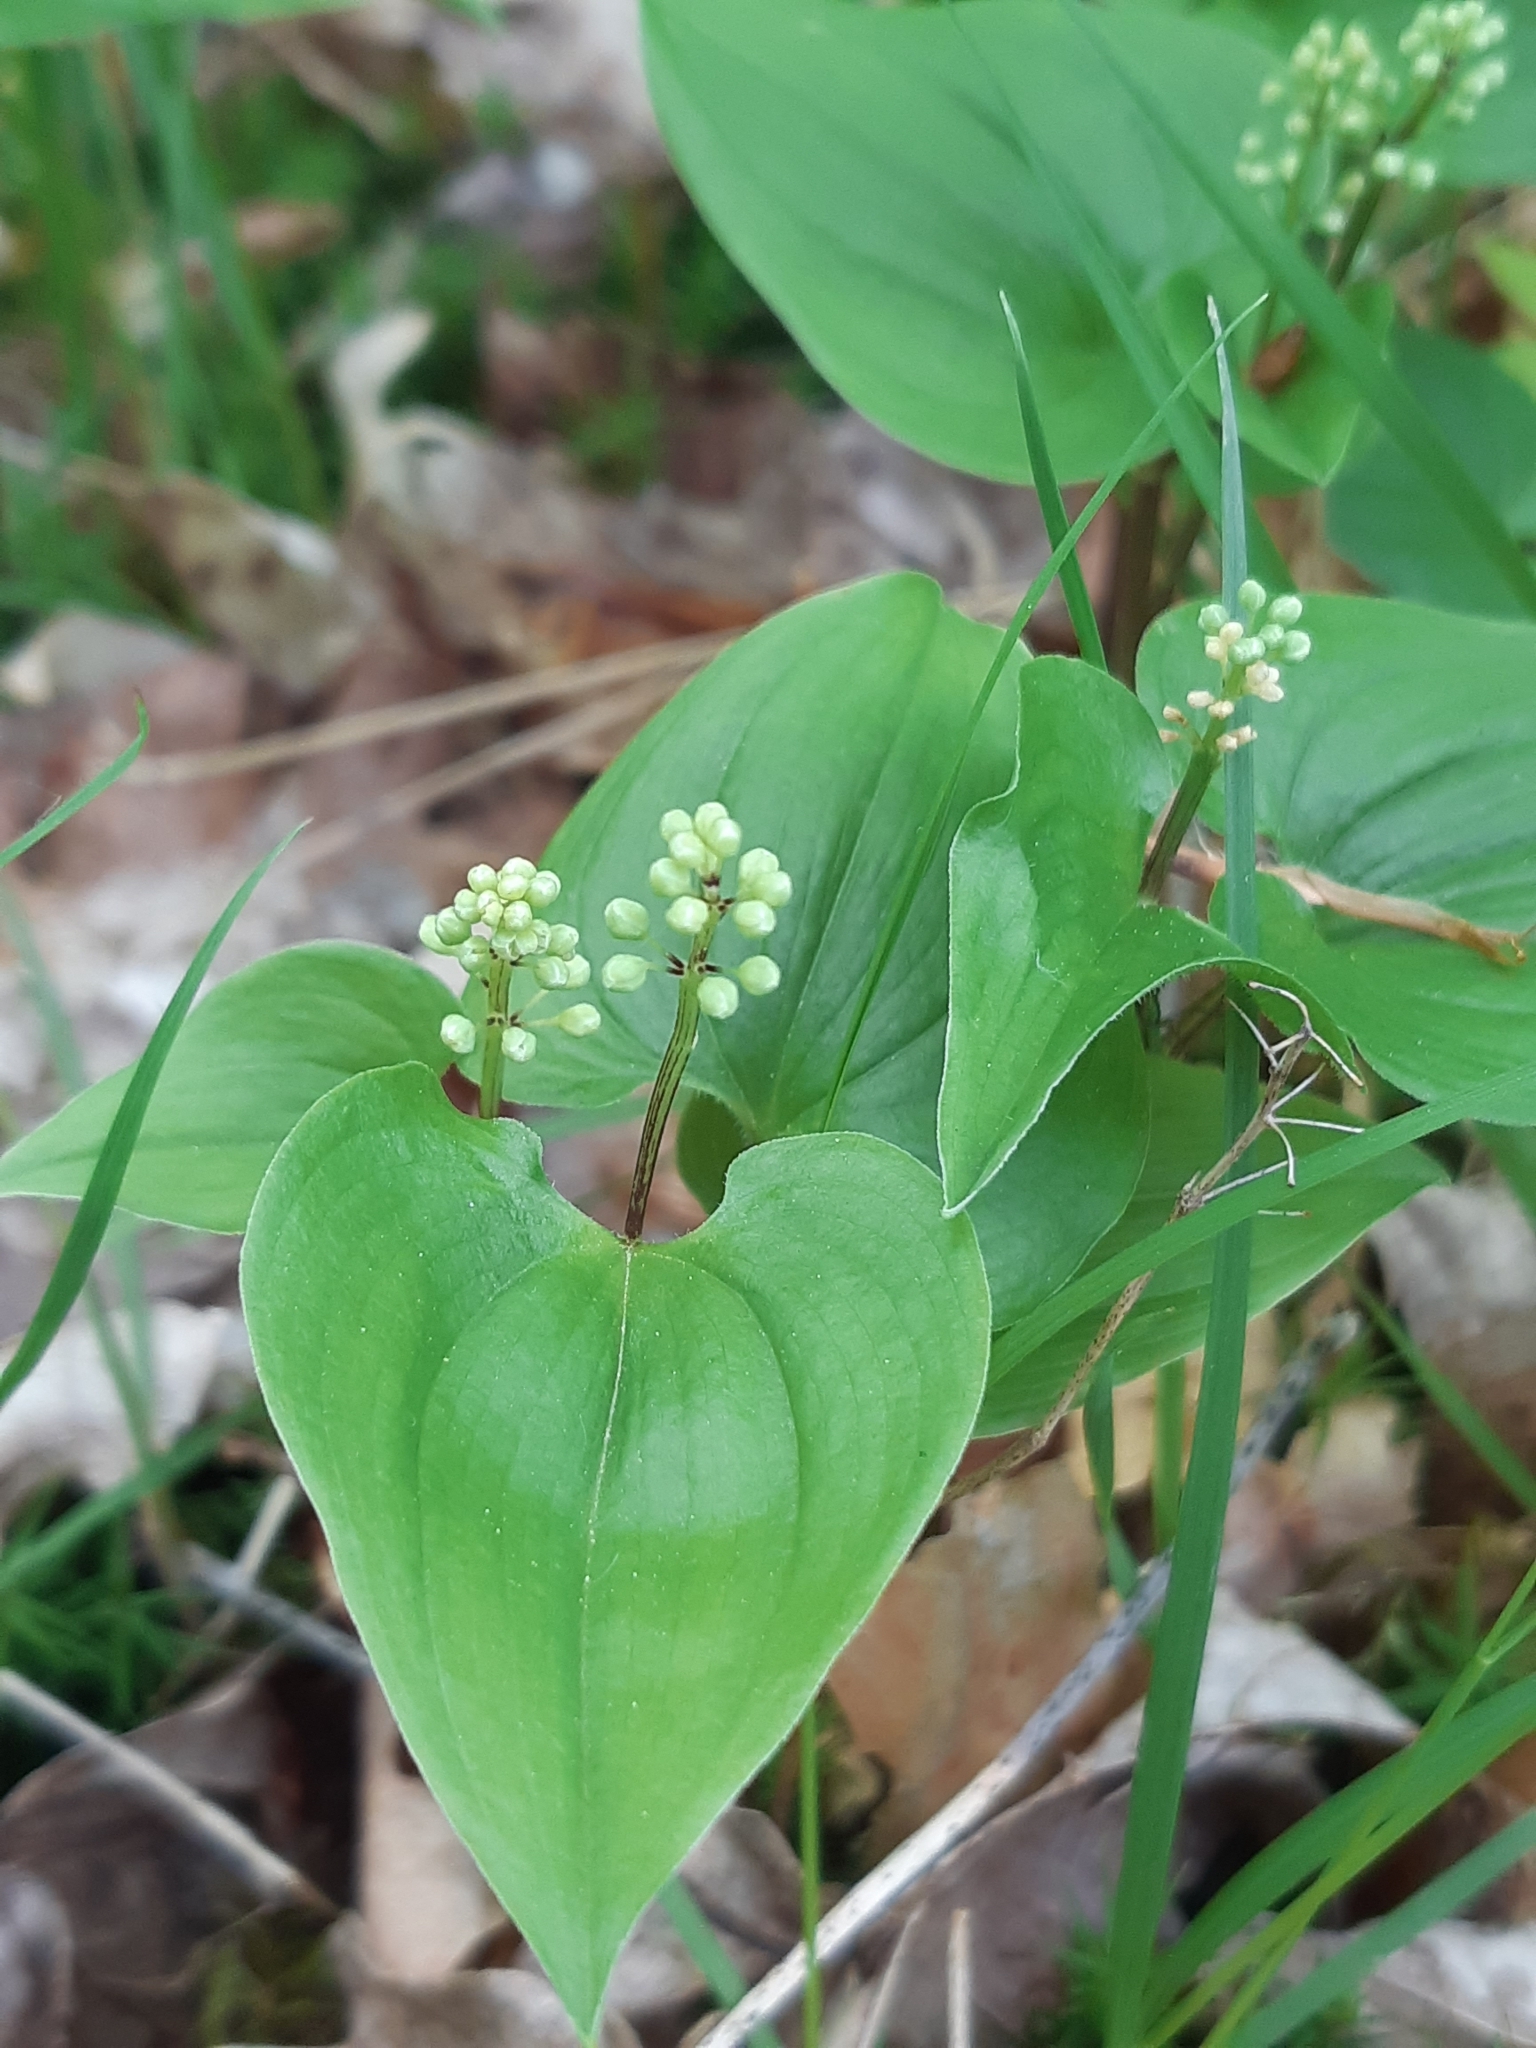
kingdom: Plantae
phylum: Tracheophyta
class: Liliopsida
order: Asparagales
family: Asparagaceae
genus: Maianthemum
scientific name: Maianthemum bifolium
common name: May lily
